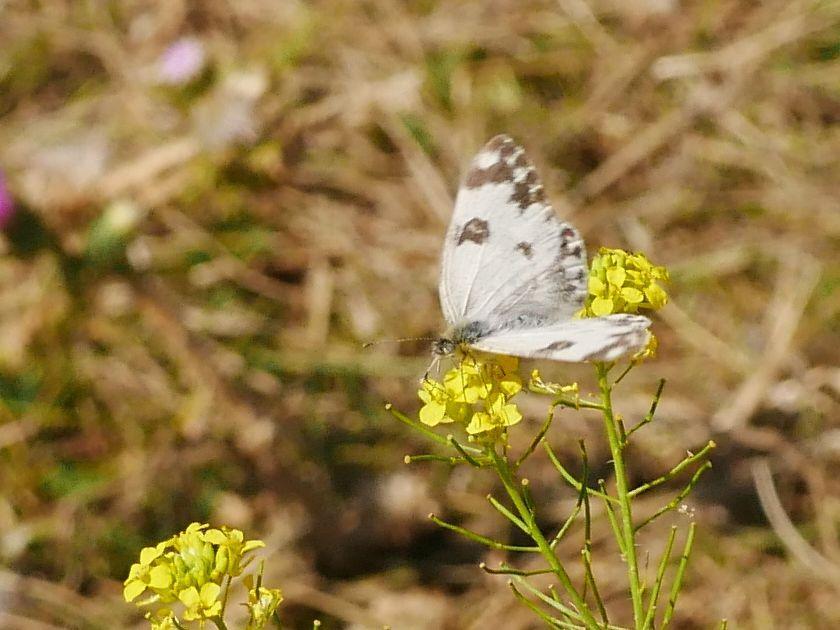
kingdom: Animalia
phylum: Arthropoda
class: Insecta
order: Lepidoptera
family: Pieridae
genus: Pontia
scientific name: Pontia edusa
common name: Eastern bath white
